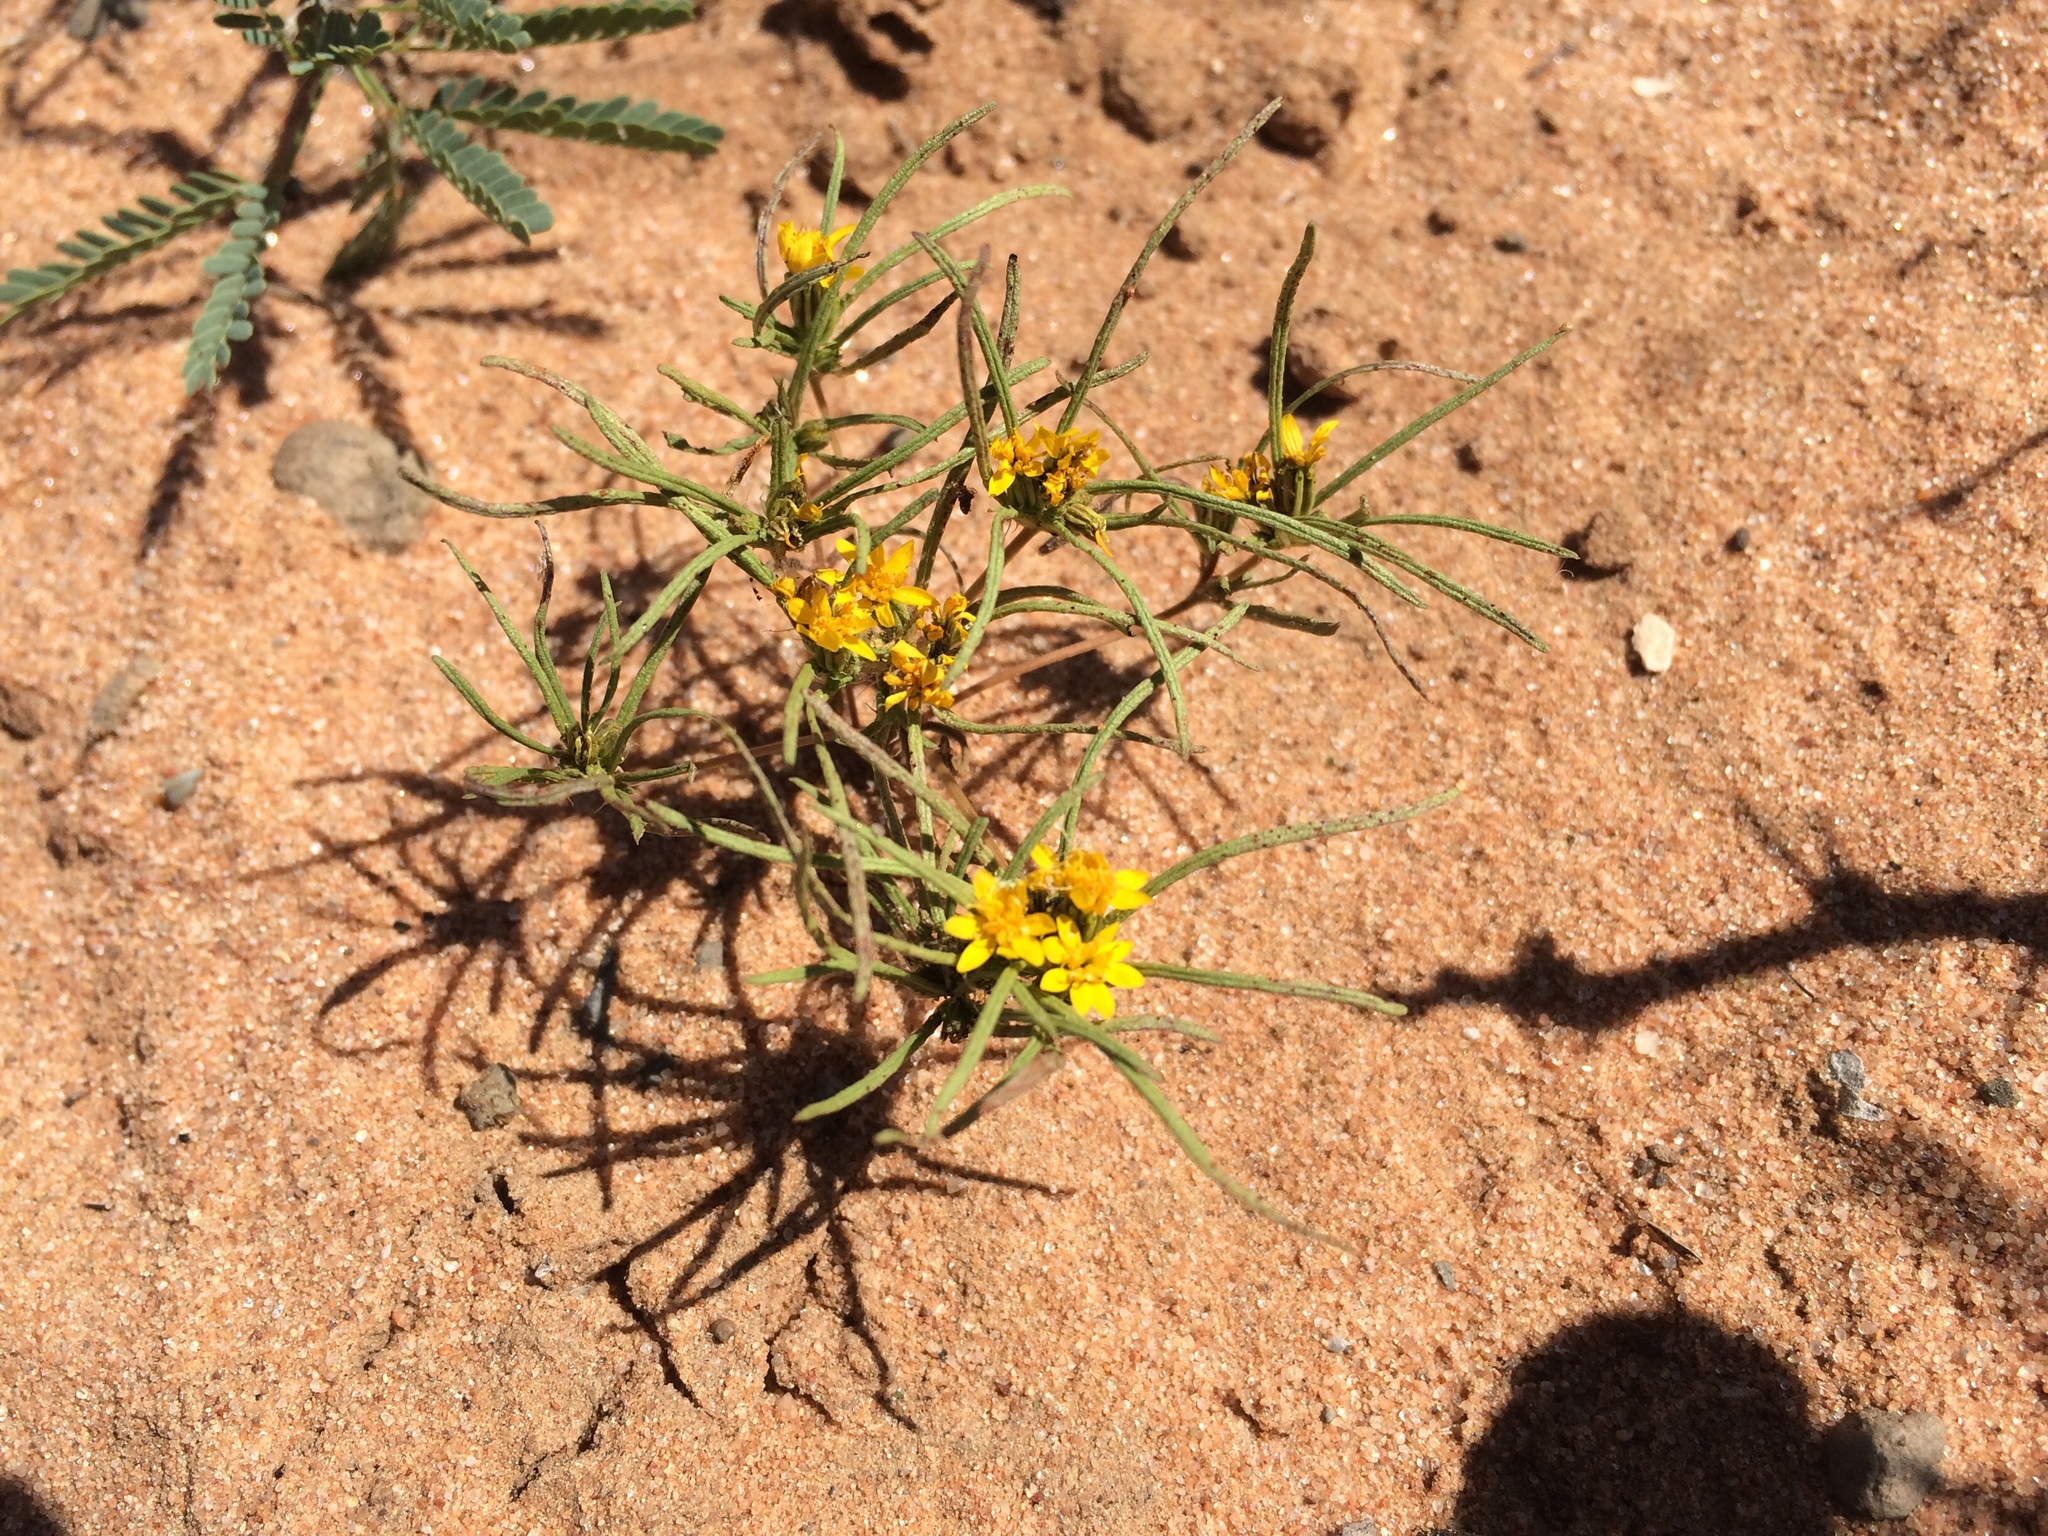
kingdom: Plantae
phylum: Tracheophyta
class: Magnoliopsida
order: Asterales
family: Asteraceae
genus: Pectis
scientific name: Pectis angustifolia
